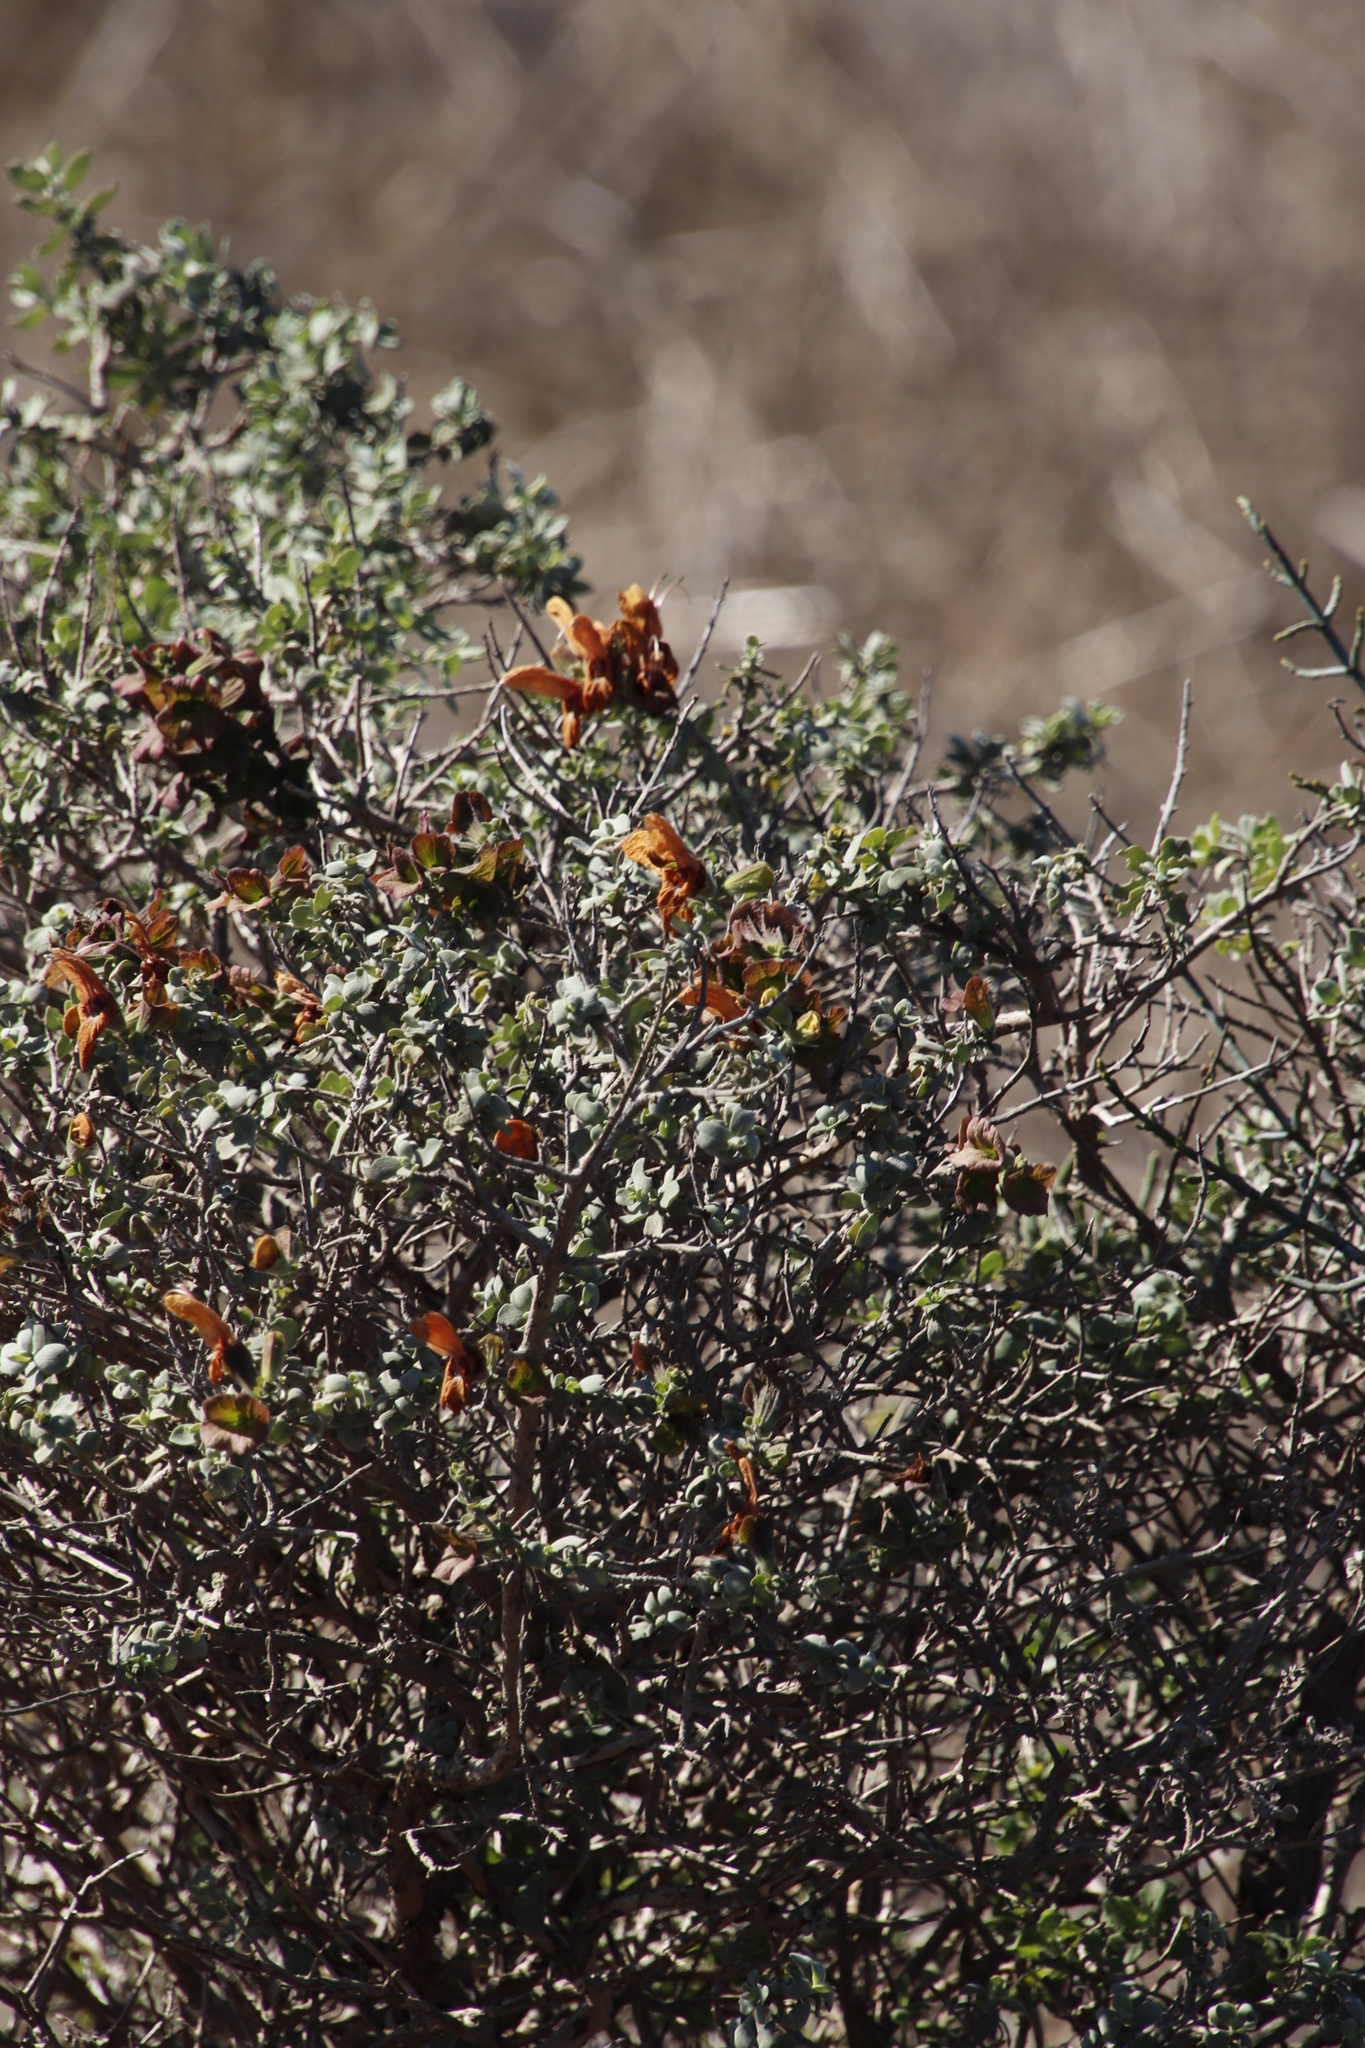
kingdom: Plantae
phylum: Tracheophyta
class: Magnoliopsida
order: Lamiales
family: Lamiaceae
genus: Salvia
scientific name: Salvia aurea
